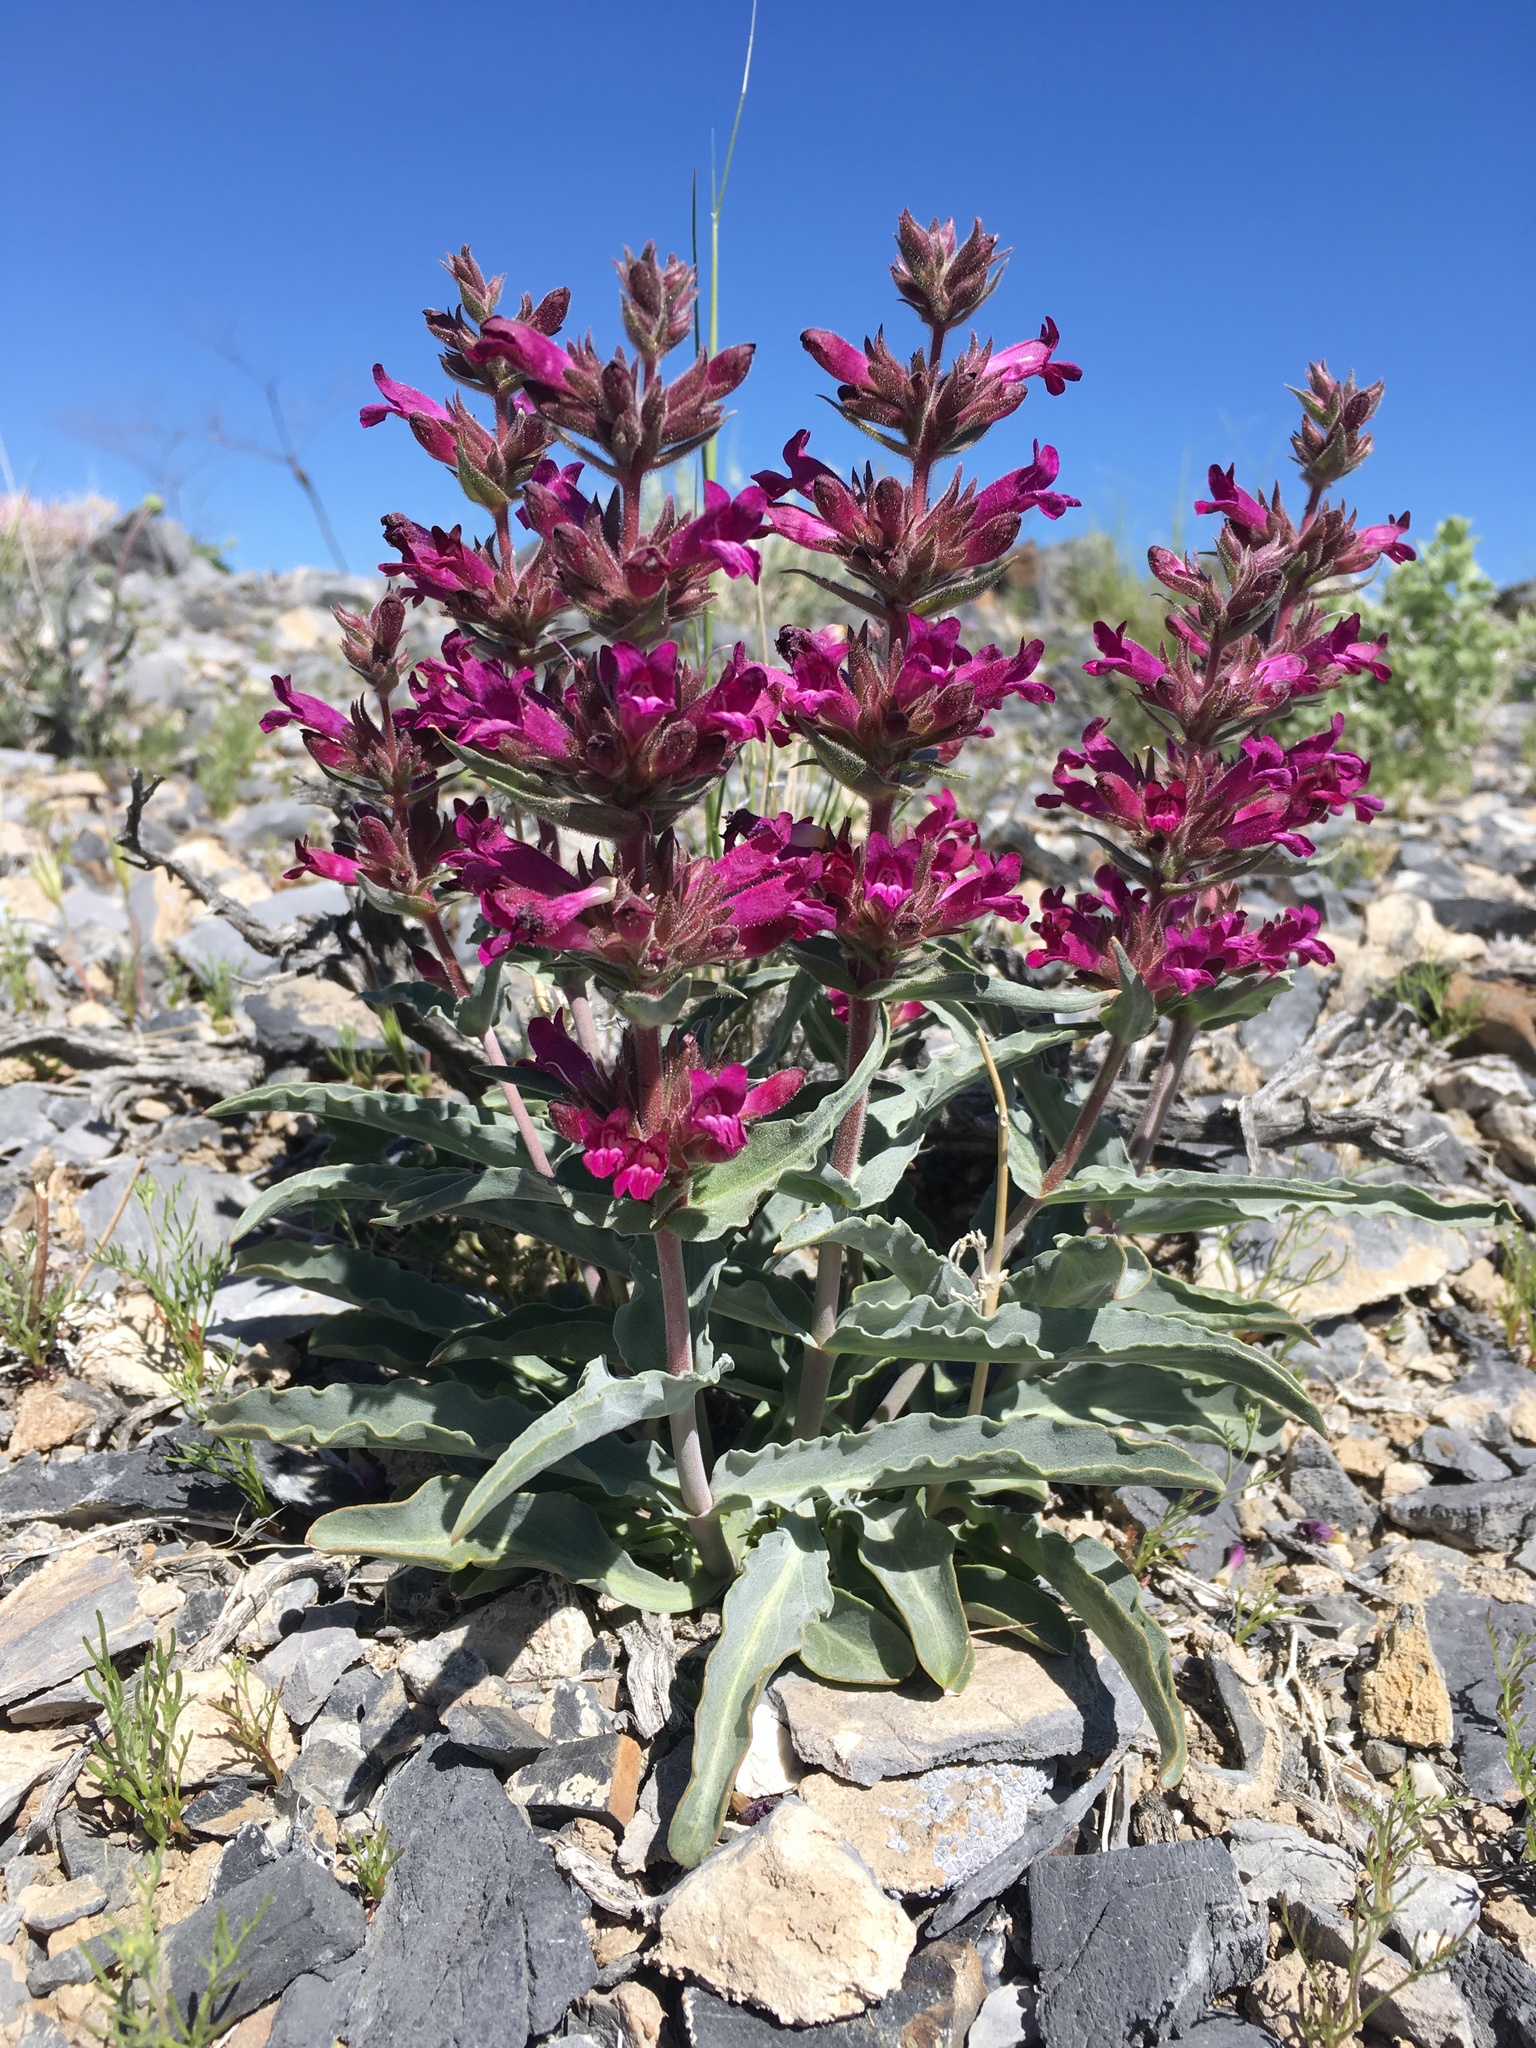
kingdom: Plantae
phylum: Tracheophyta
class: Magnoliopsida
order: Lamiales
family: Plantaginaceae
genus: Penstemon
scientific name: Penstemon monoensis
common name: Mono penstemon
